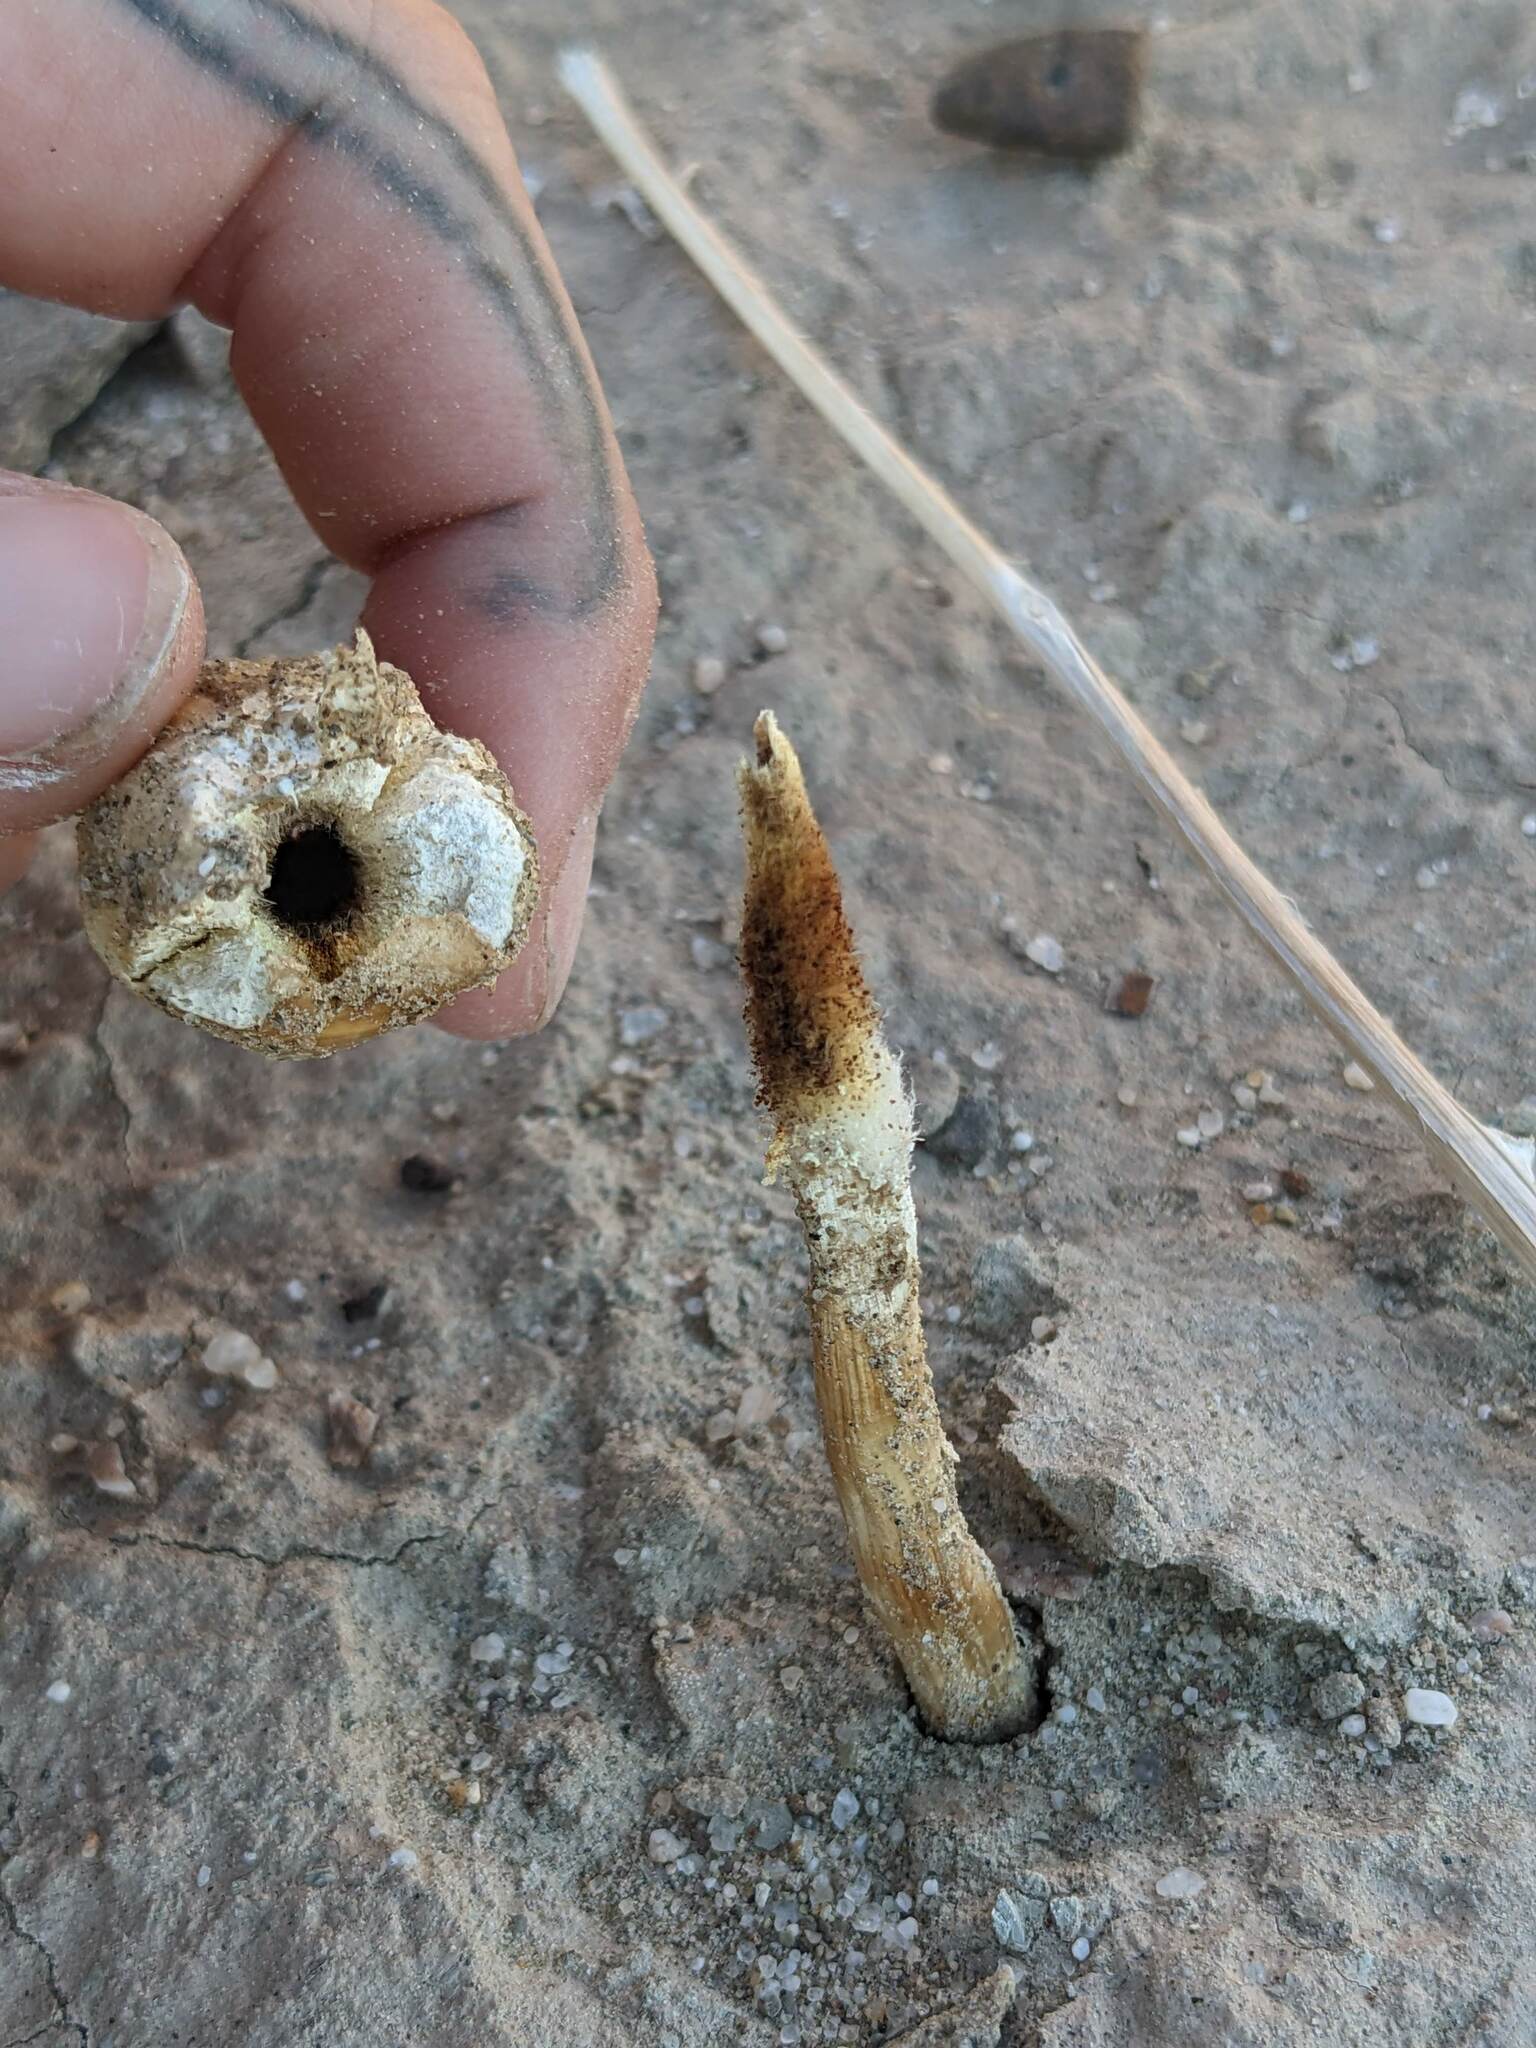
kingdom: Fungi
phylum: Basidiomycota
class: Agaricomycetes
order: Agaricales
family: Agaricaceae
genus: Podaxis
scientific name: Podaxis pistillaris
